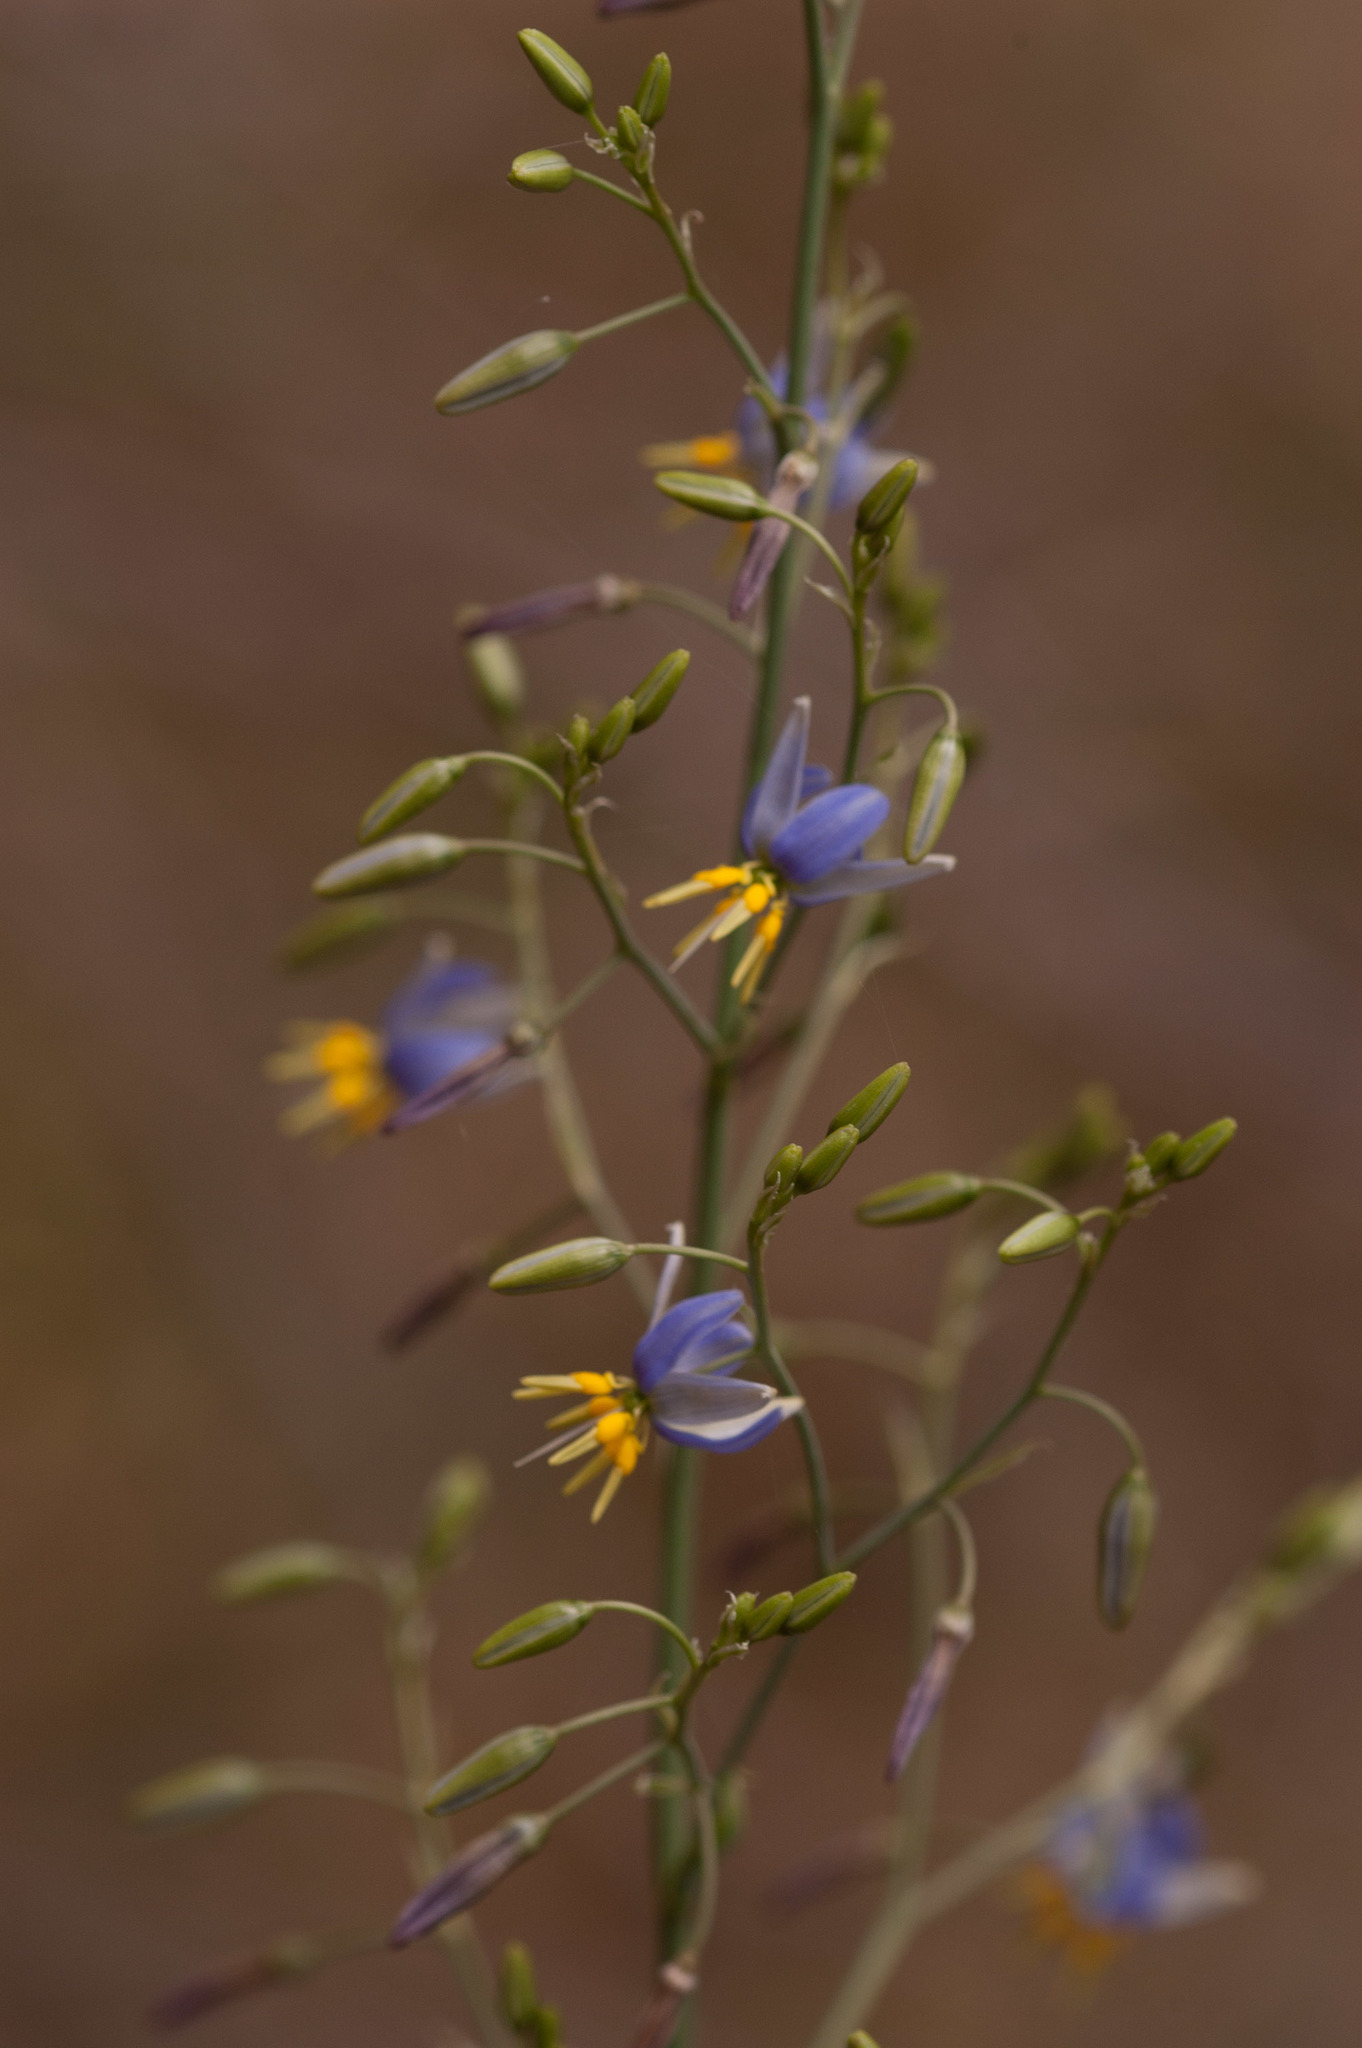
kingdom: Plantae
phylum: Tracheophyta
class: Liliopsida
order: Asparagales
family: Asphodelaceae
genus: Dianella
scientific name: Dianella longifolia
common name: Blue flax-lily
